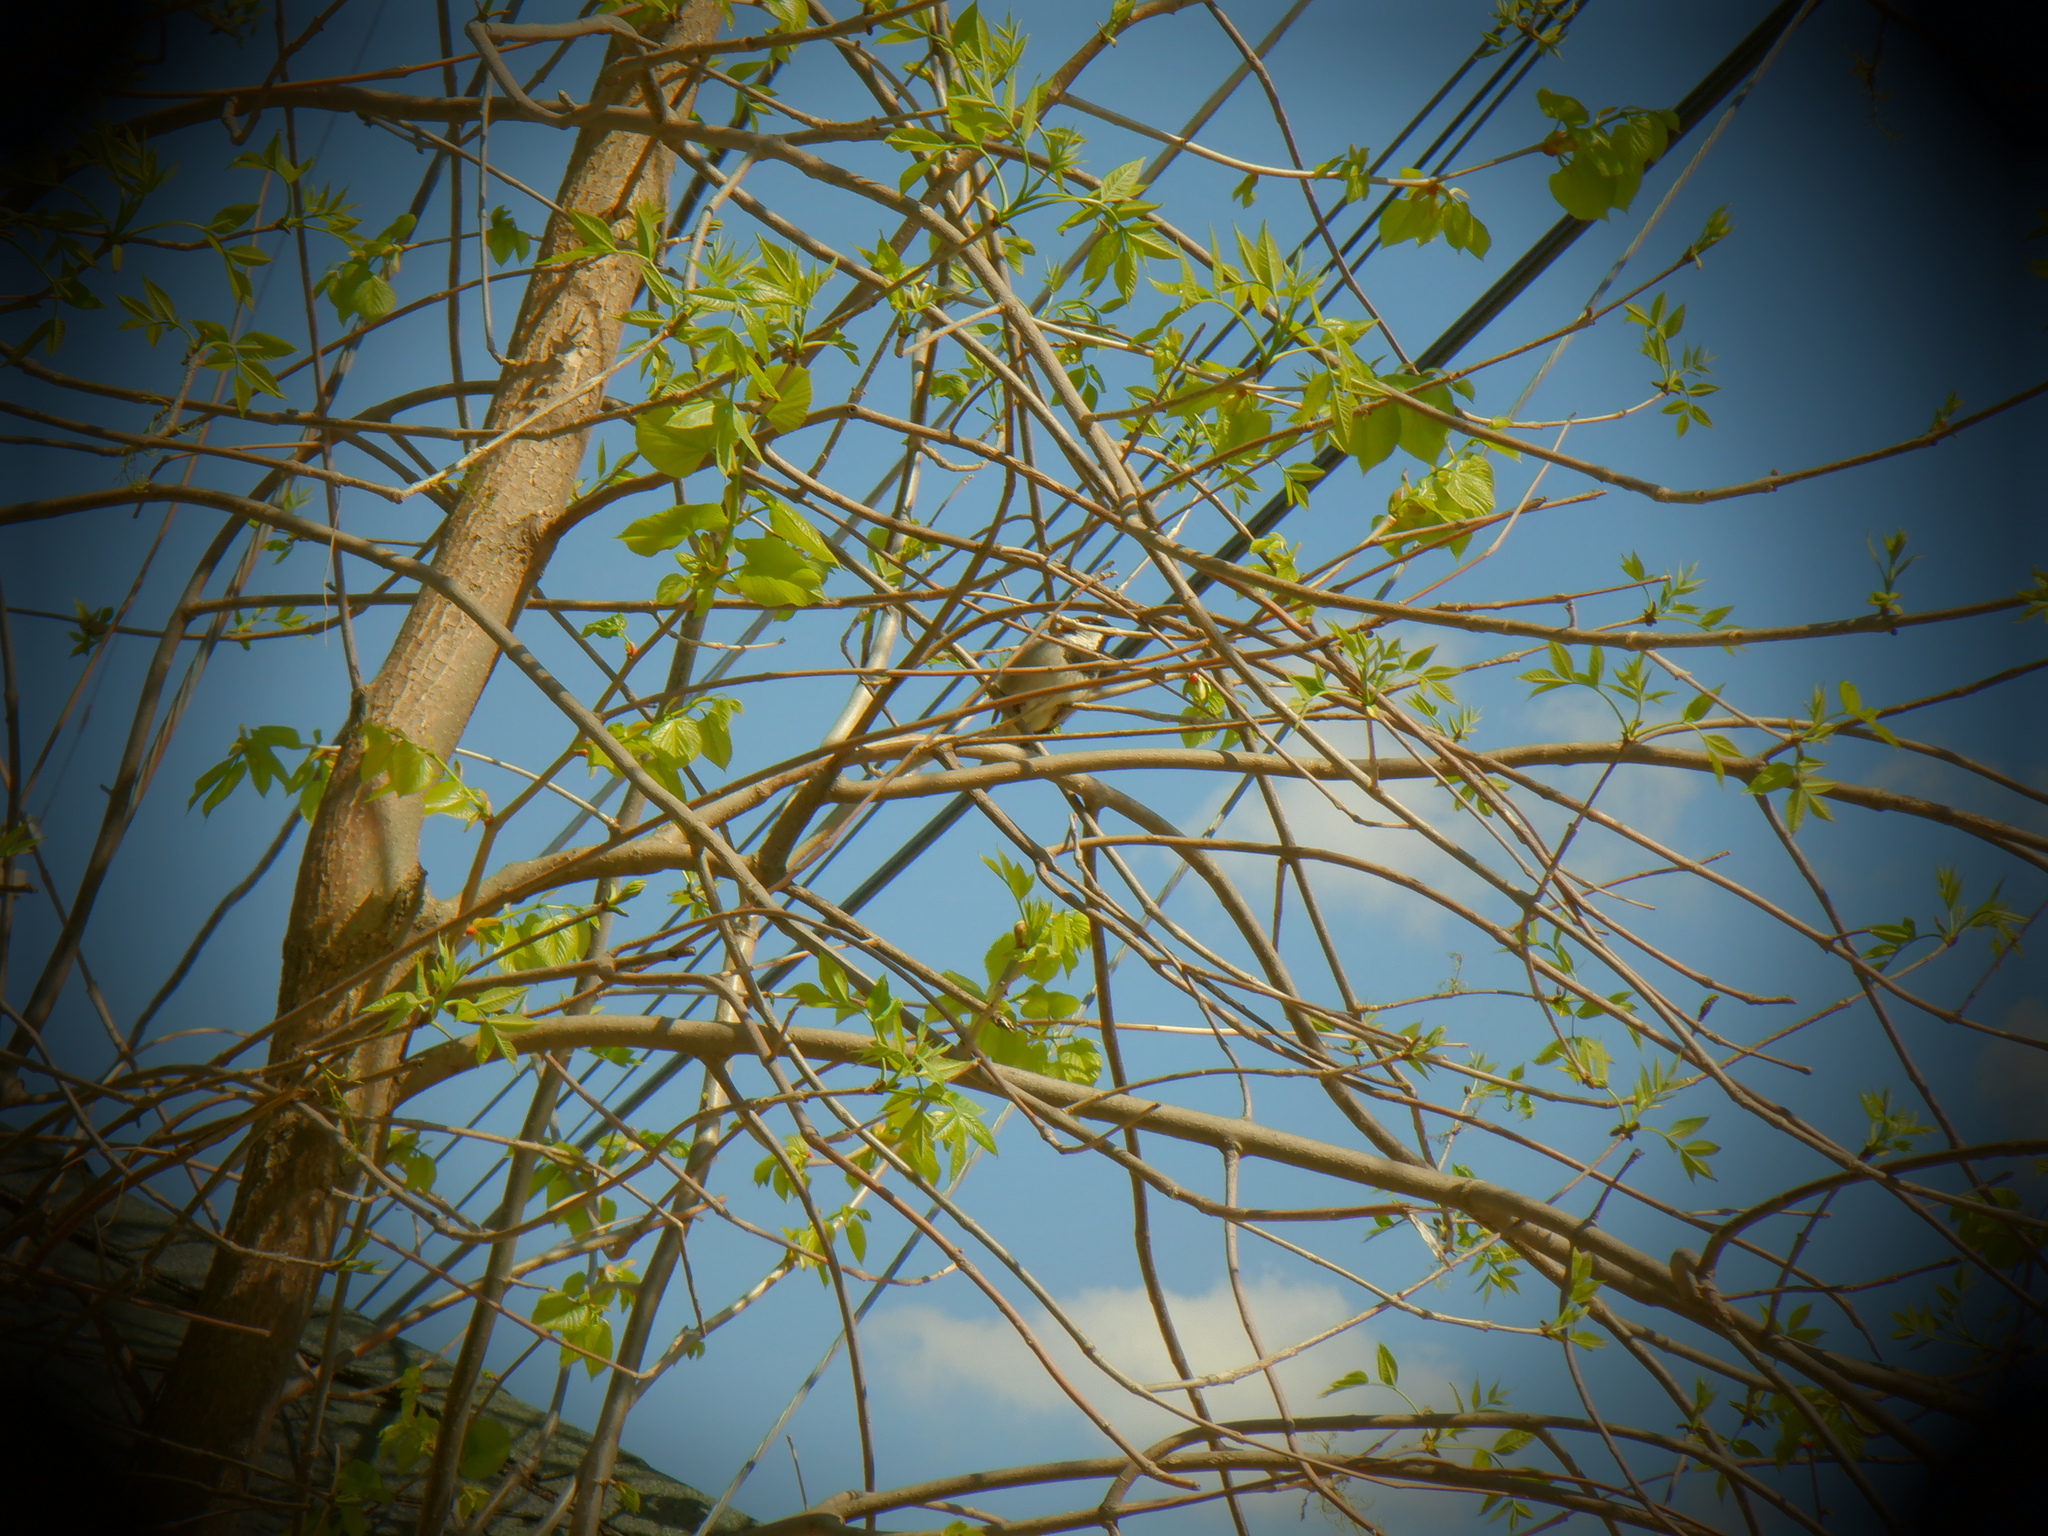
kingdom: Animalia
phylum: Chordata
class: Aves
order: Passeriformes
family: Passeridae
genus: Passer
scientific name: Passer domesticus
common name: House sparrow
